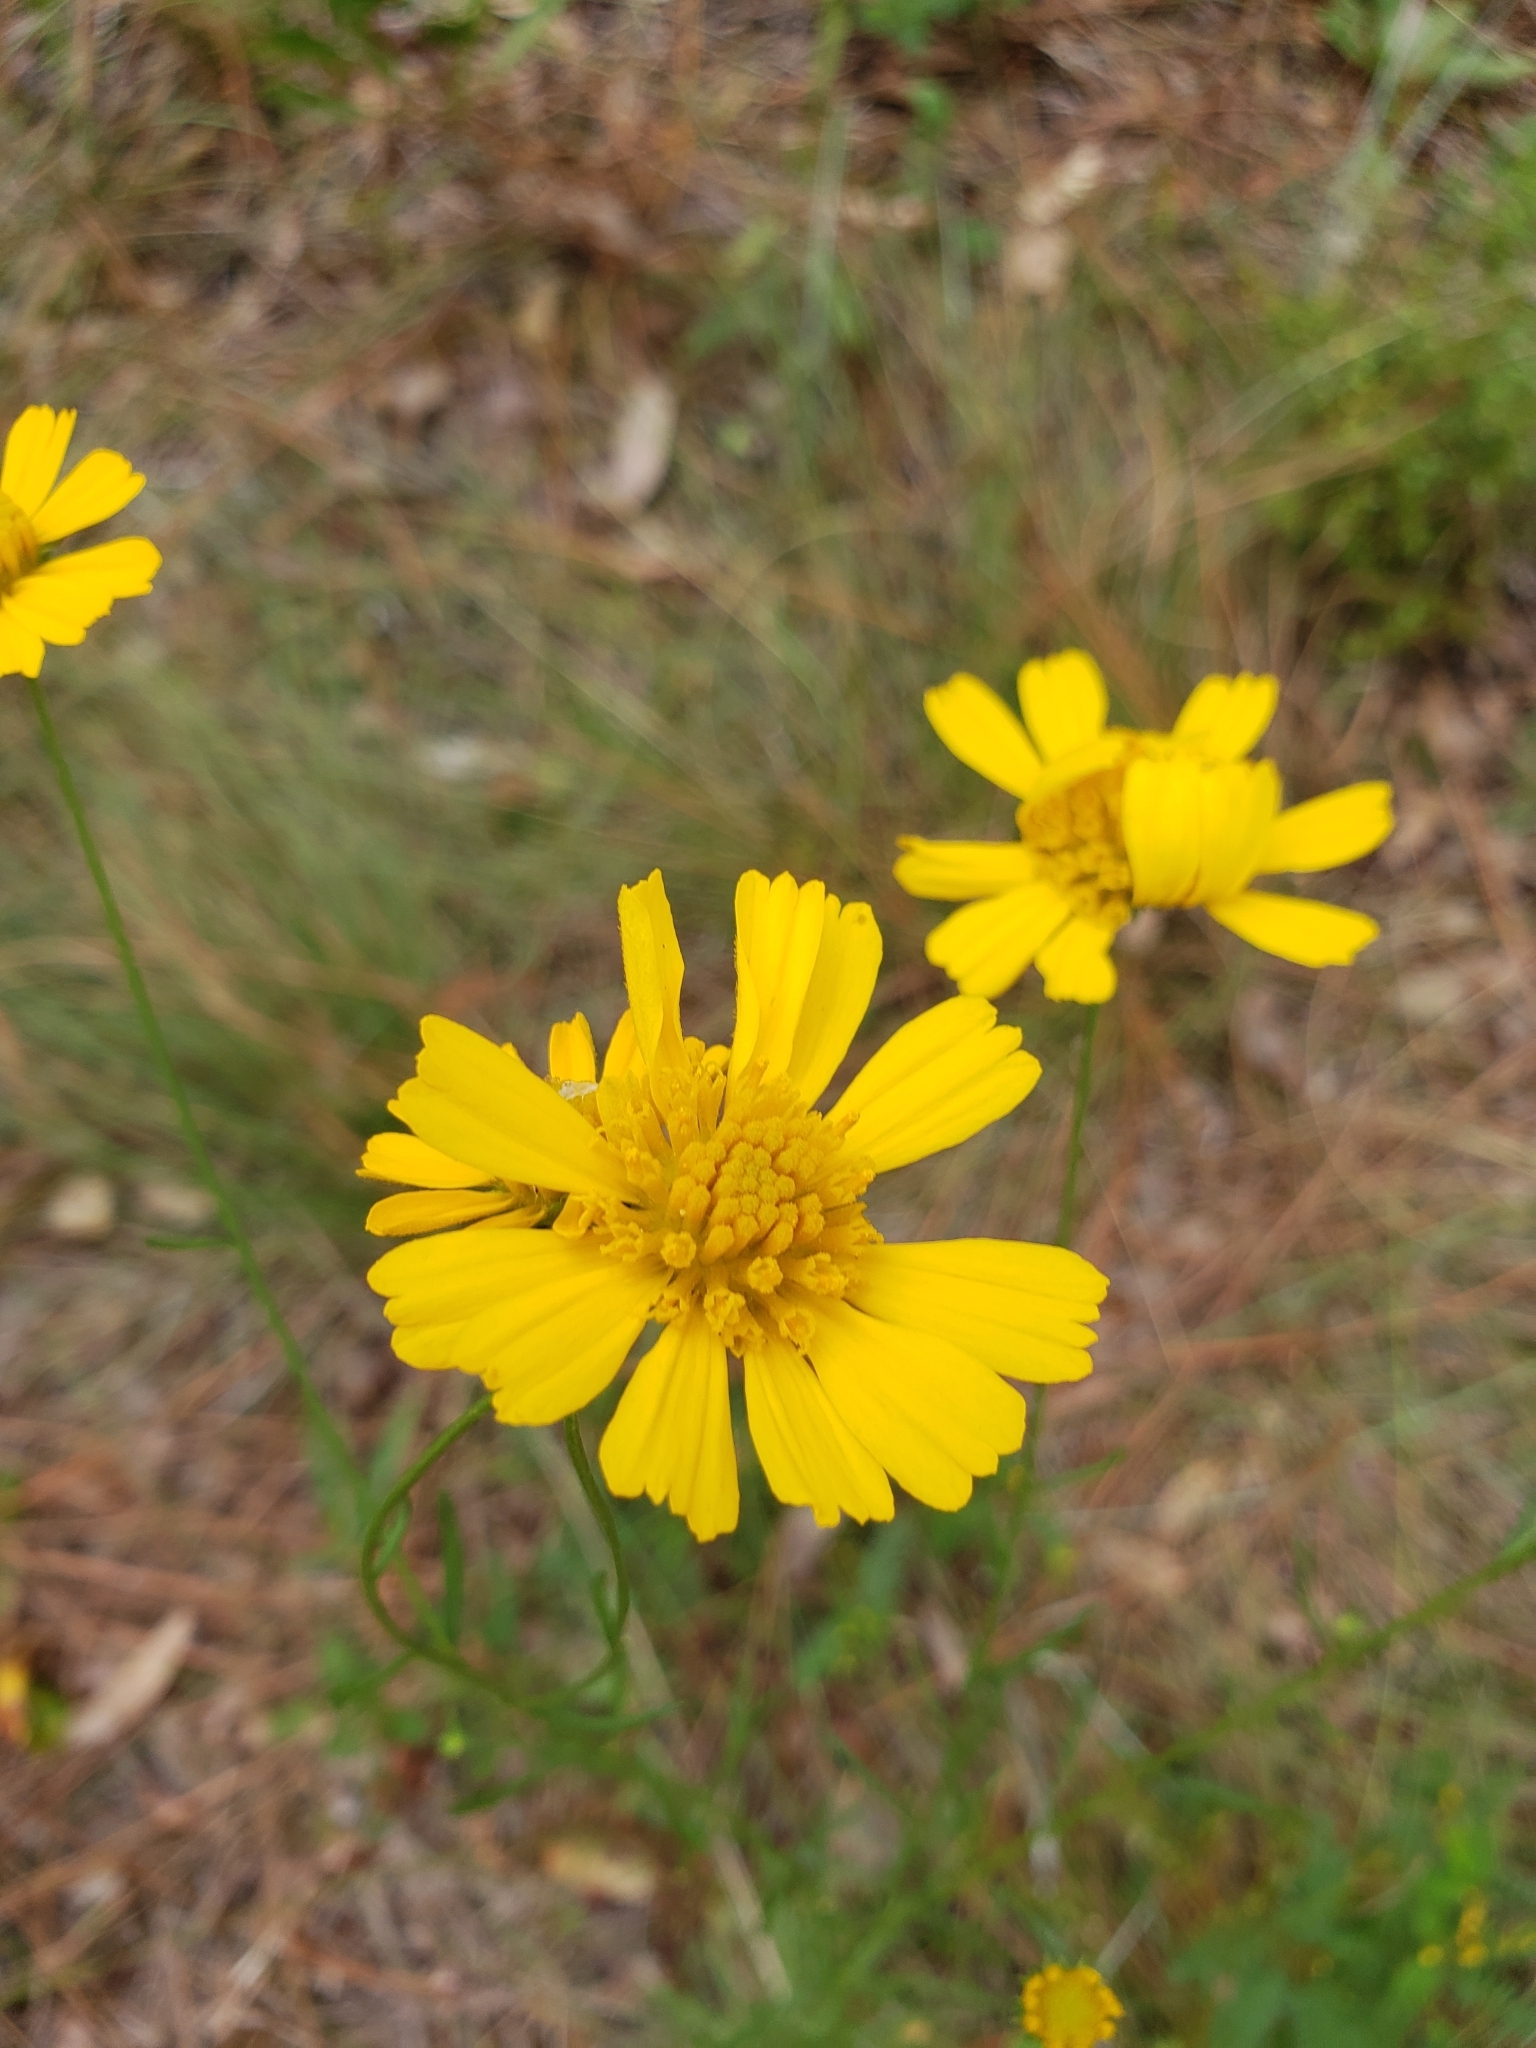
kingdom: Plantae
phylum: Tracheophyta
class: Magnoliopsida
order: Asterales
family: Asteraceae
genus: Balduina
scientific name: Balduina angustifolia
